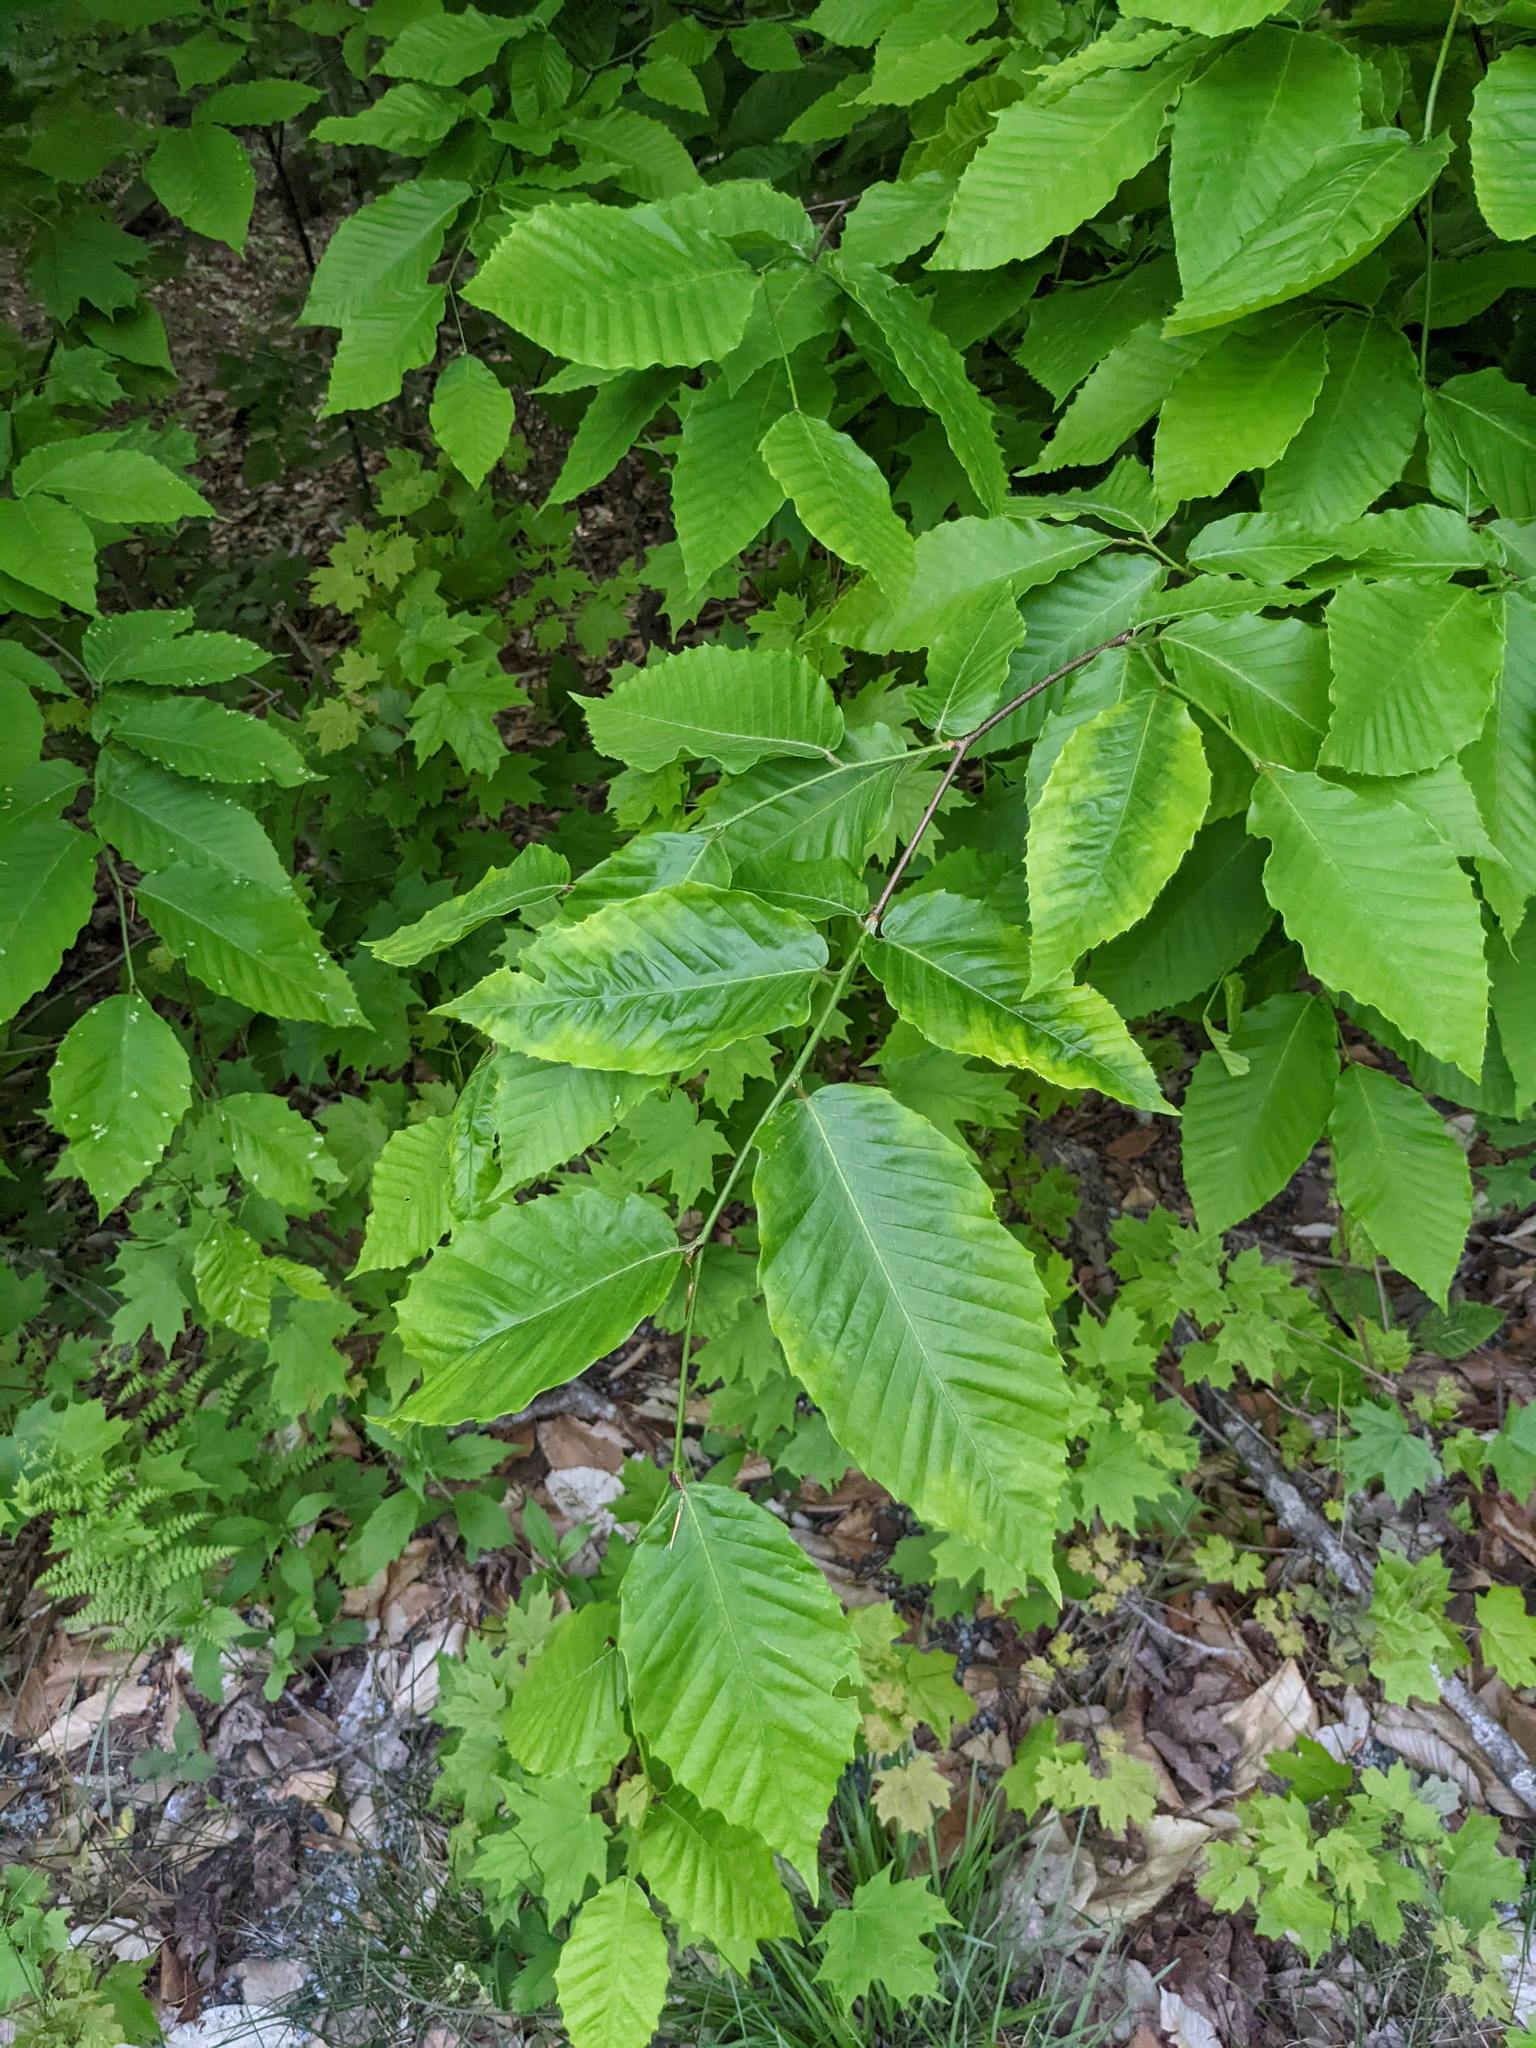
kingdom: Plantae
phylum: Tracheophyta
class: Magnoliopsida
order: Fagales
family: Fagaceae
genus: Fagus
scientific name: Fagus grandifolia
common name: American beech
